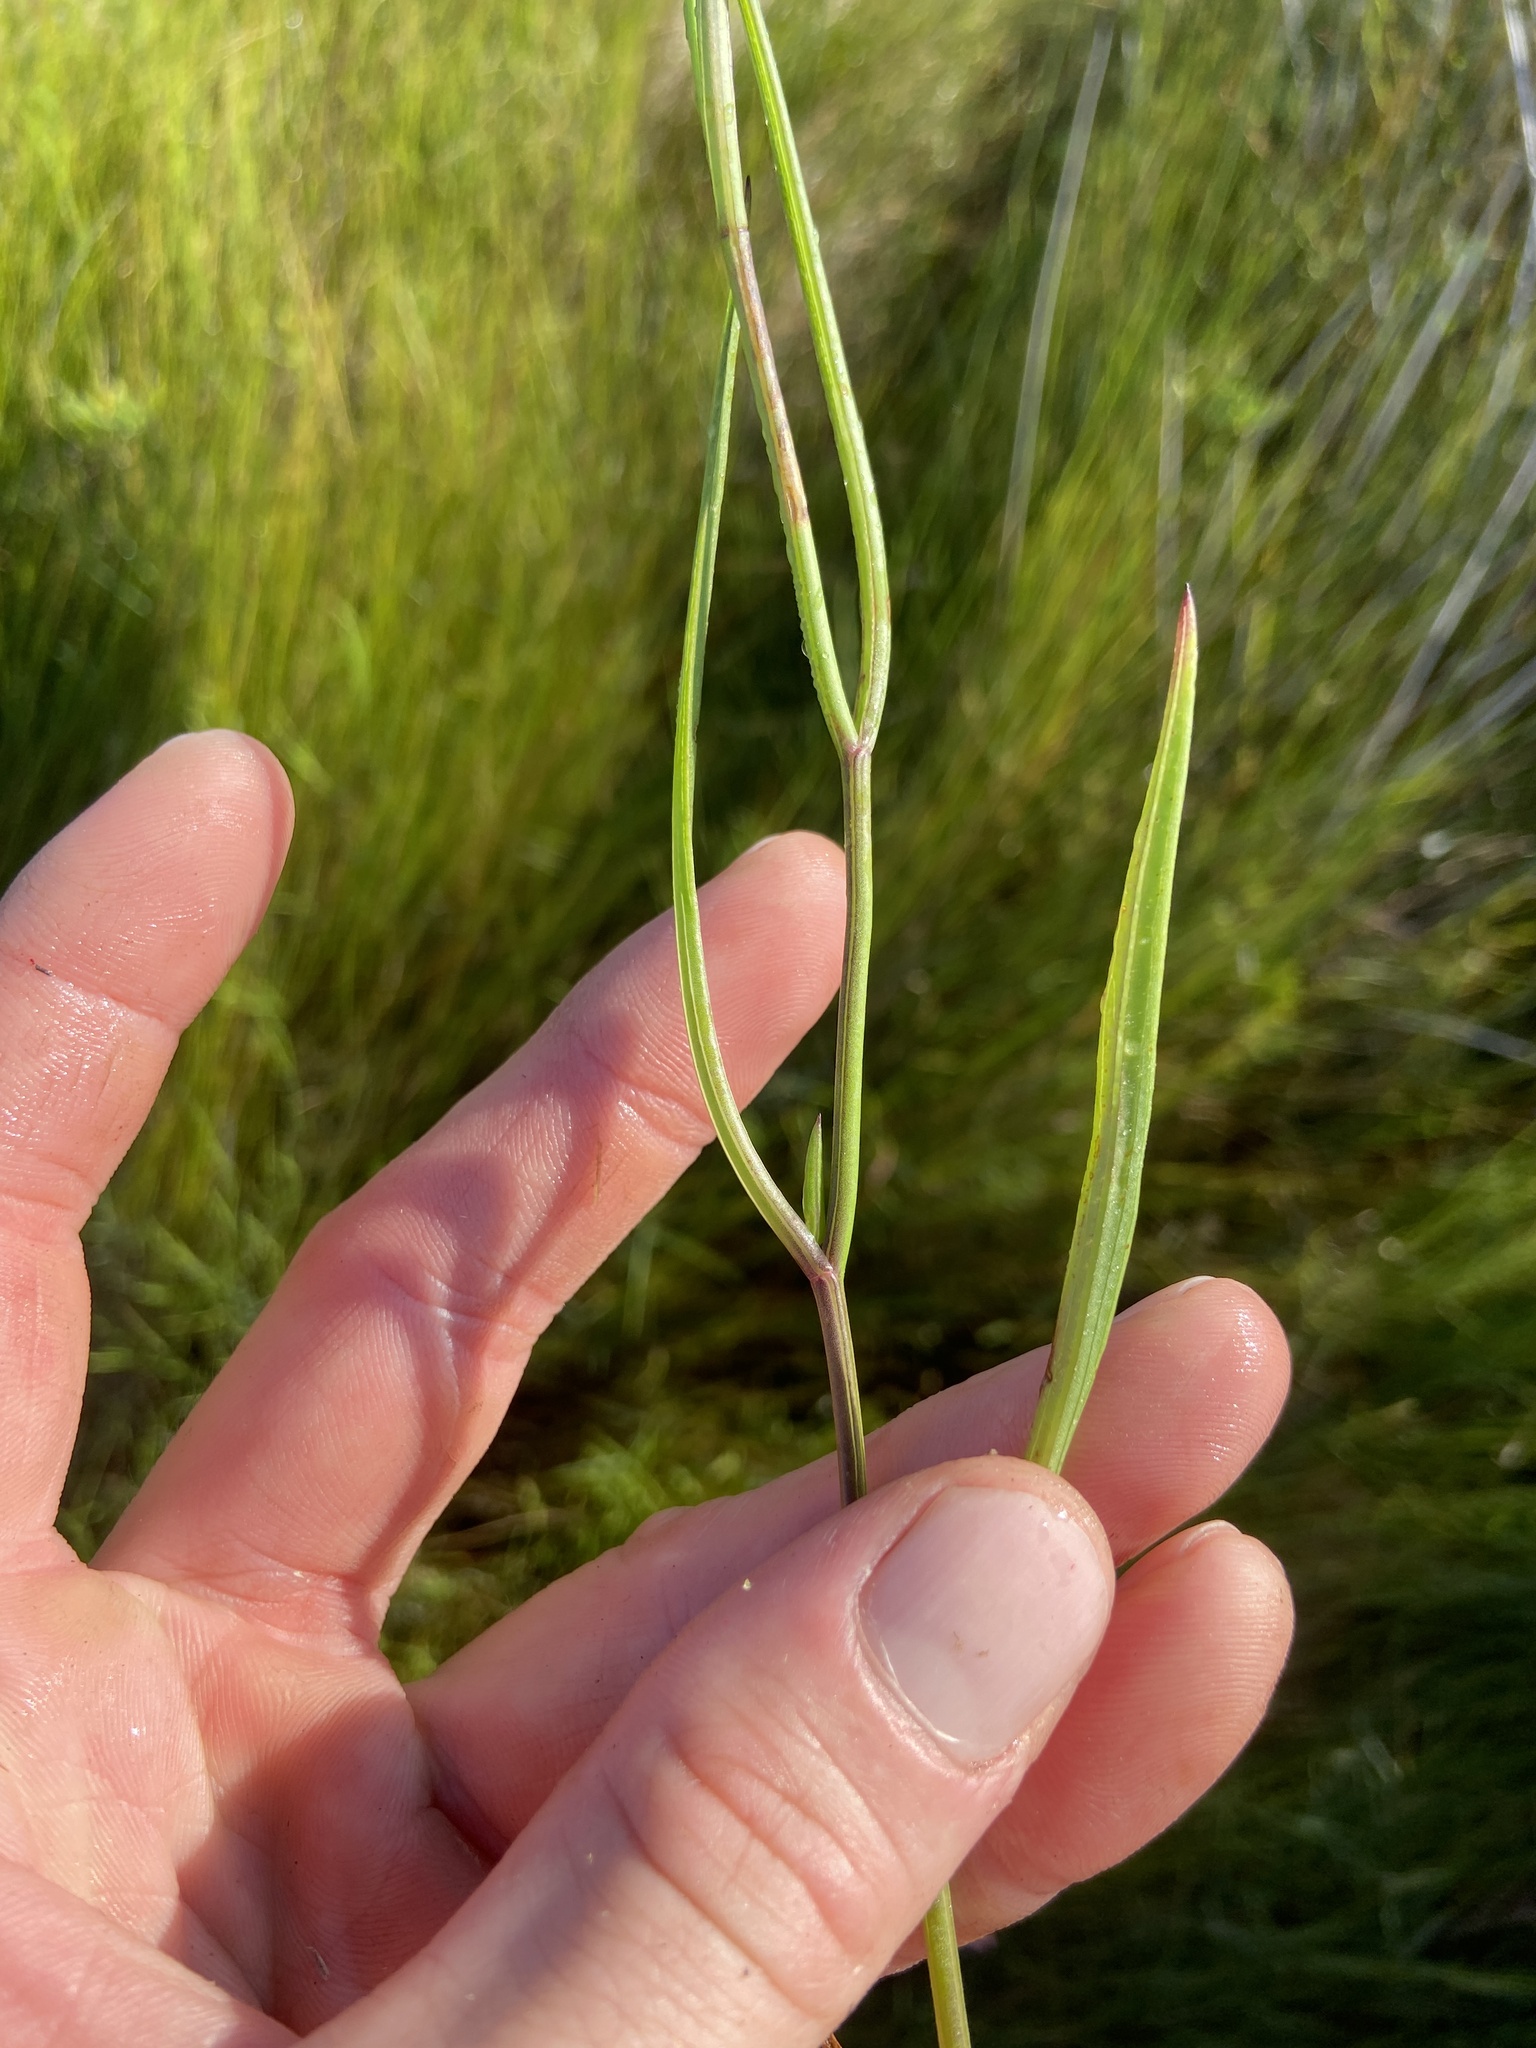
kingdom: Plantae
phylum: Tracheophyta
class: Magnoliopsida
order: Asterales
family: Asteraceae
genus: Symphyotrichum
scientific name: Symphyotrichum tenuifolium
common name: Perennial salt-marsh aster
